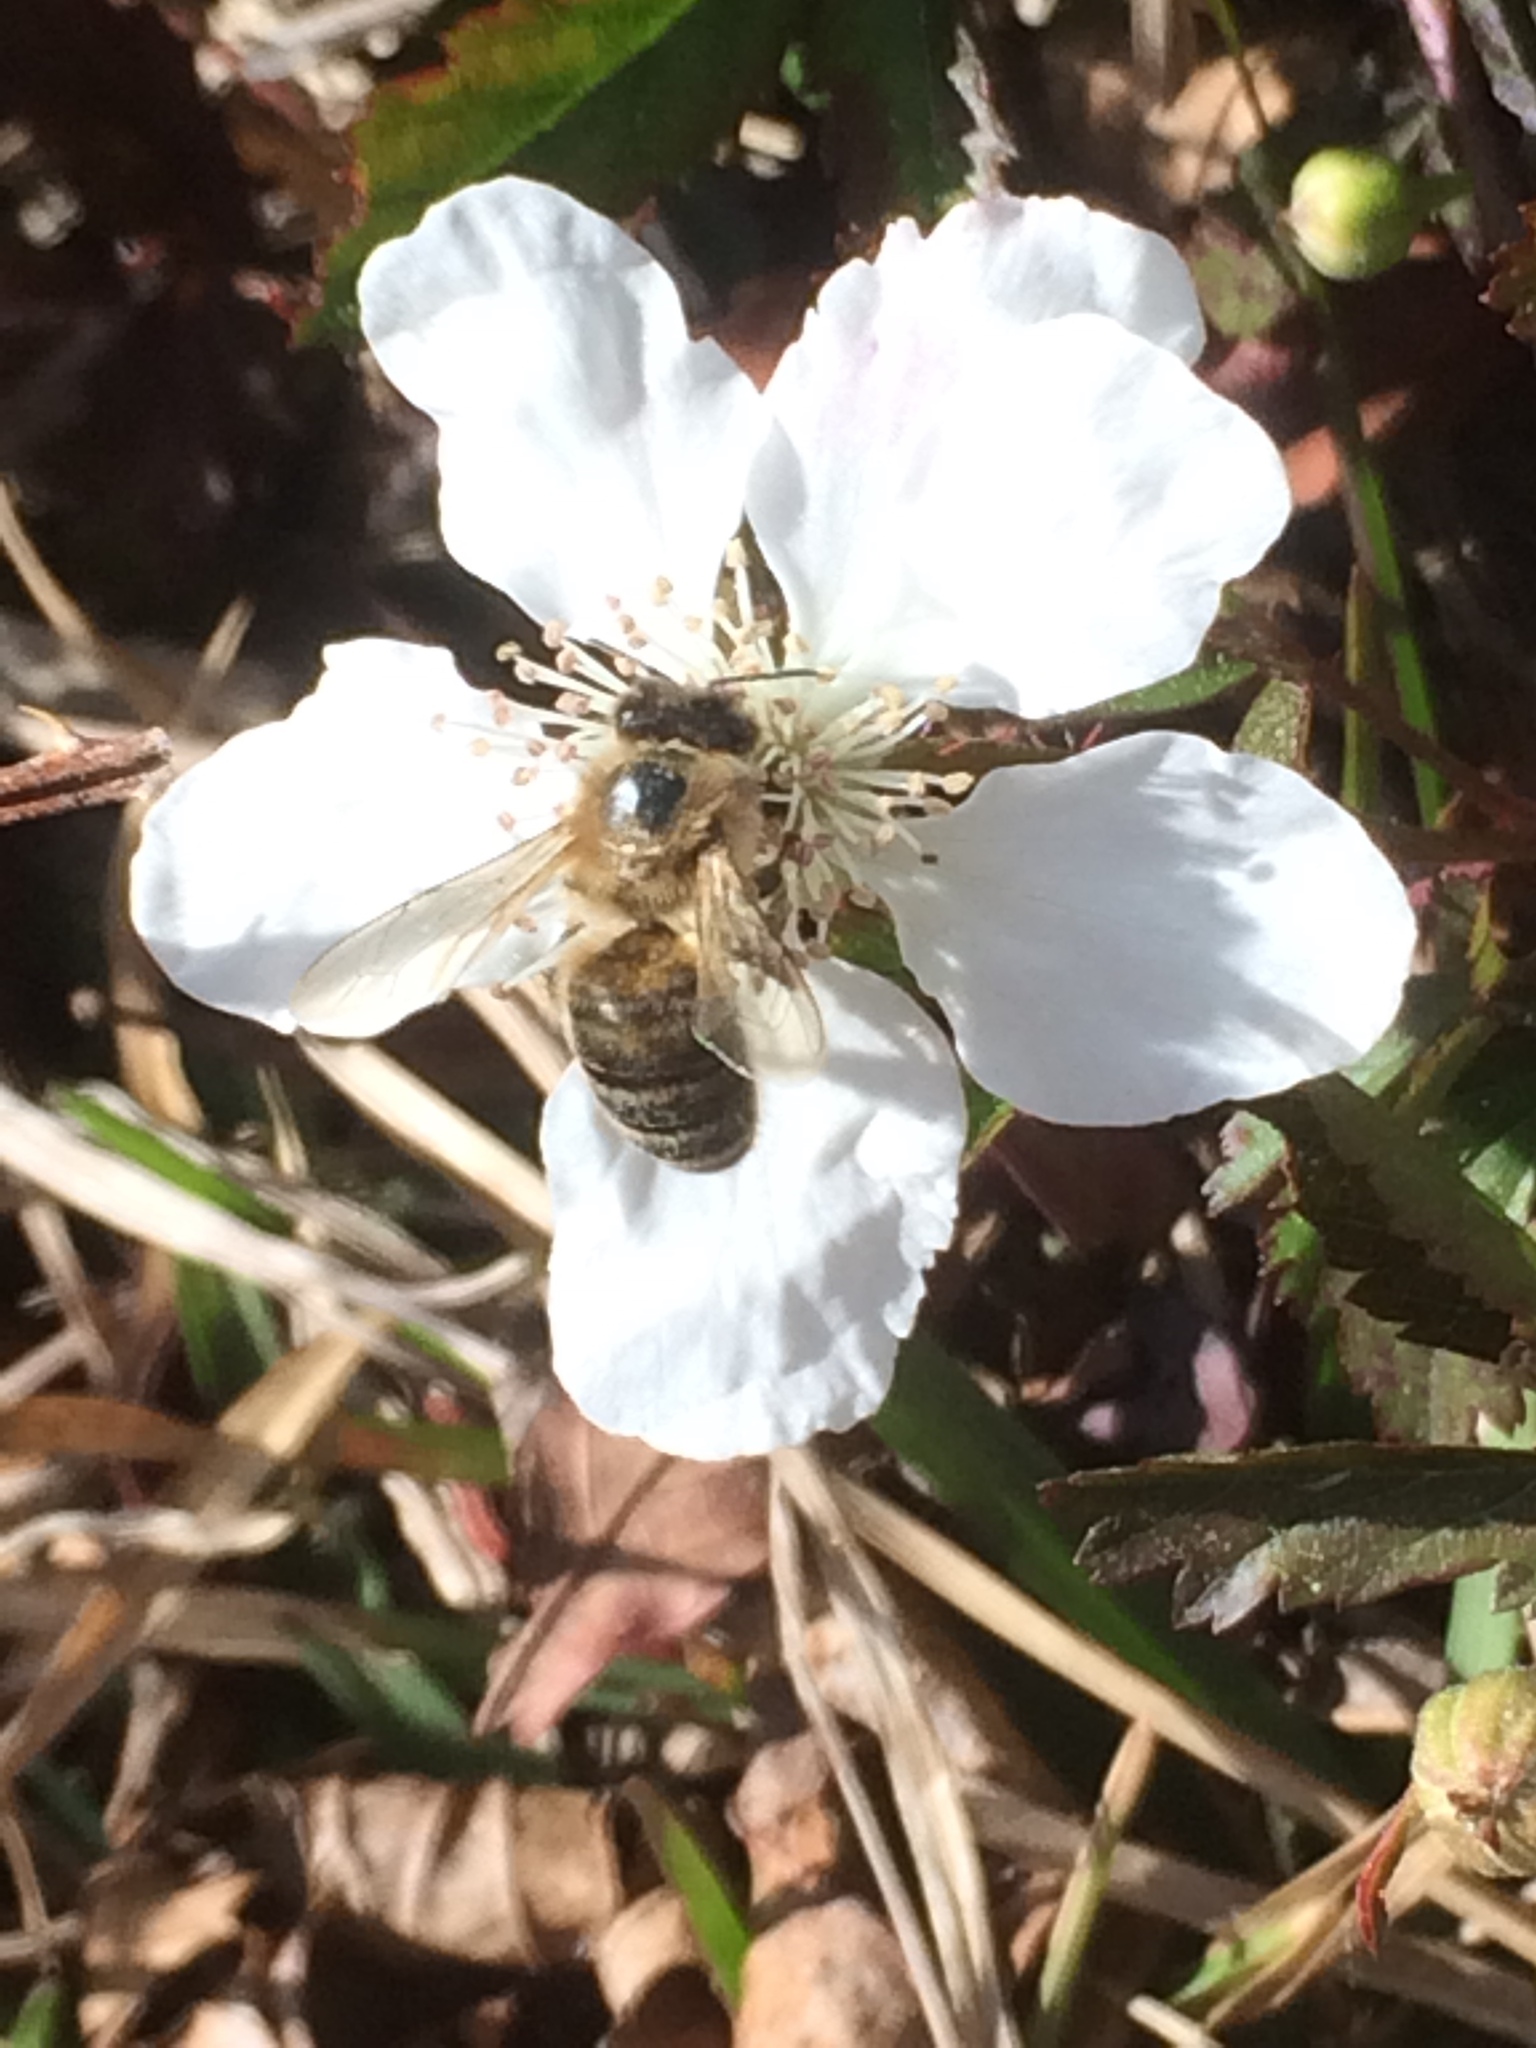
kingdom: Animalia
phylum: Arthropoda
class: Insecta
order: Hymenoptera
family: Apidae
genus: Apis
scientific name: Apis mellifera
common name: Honey bee
